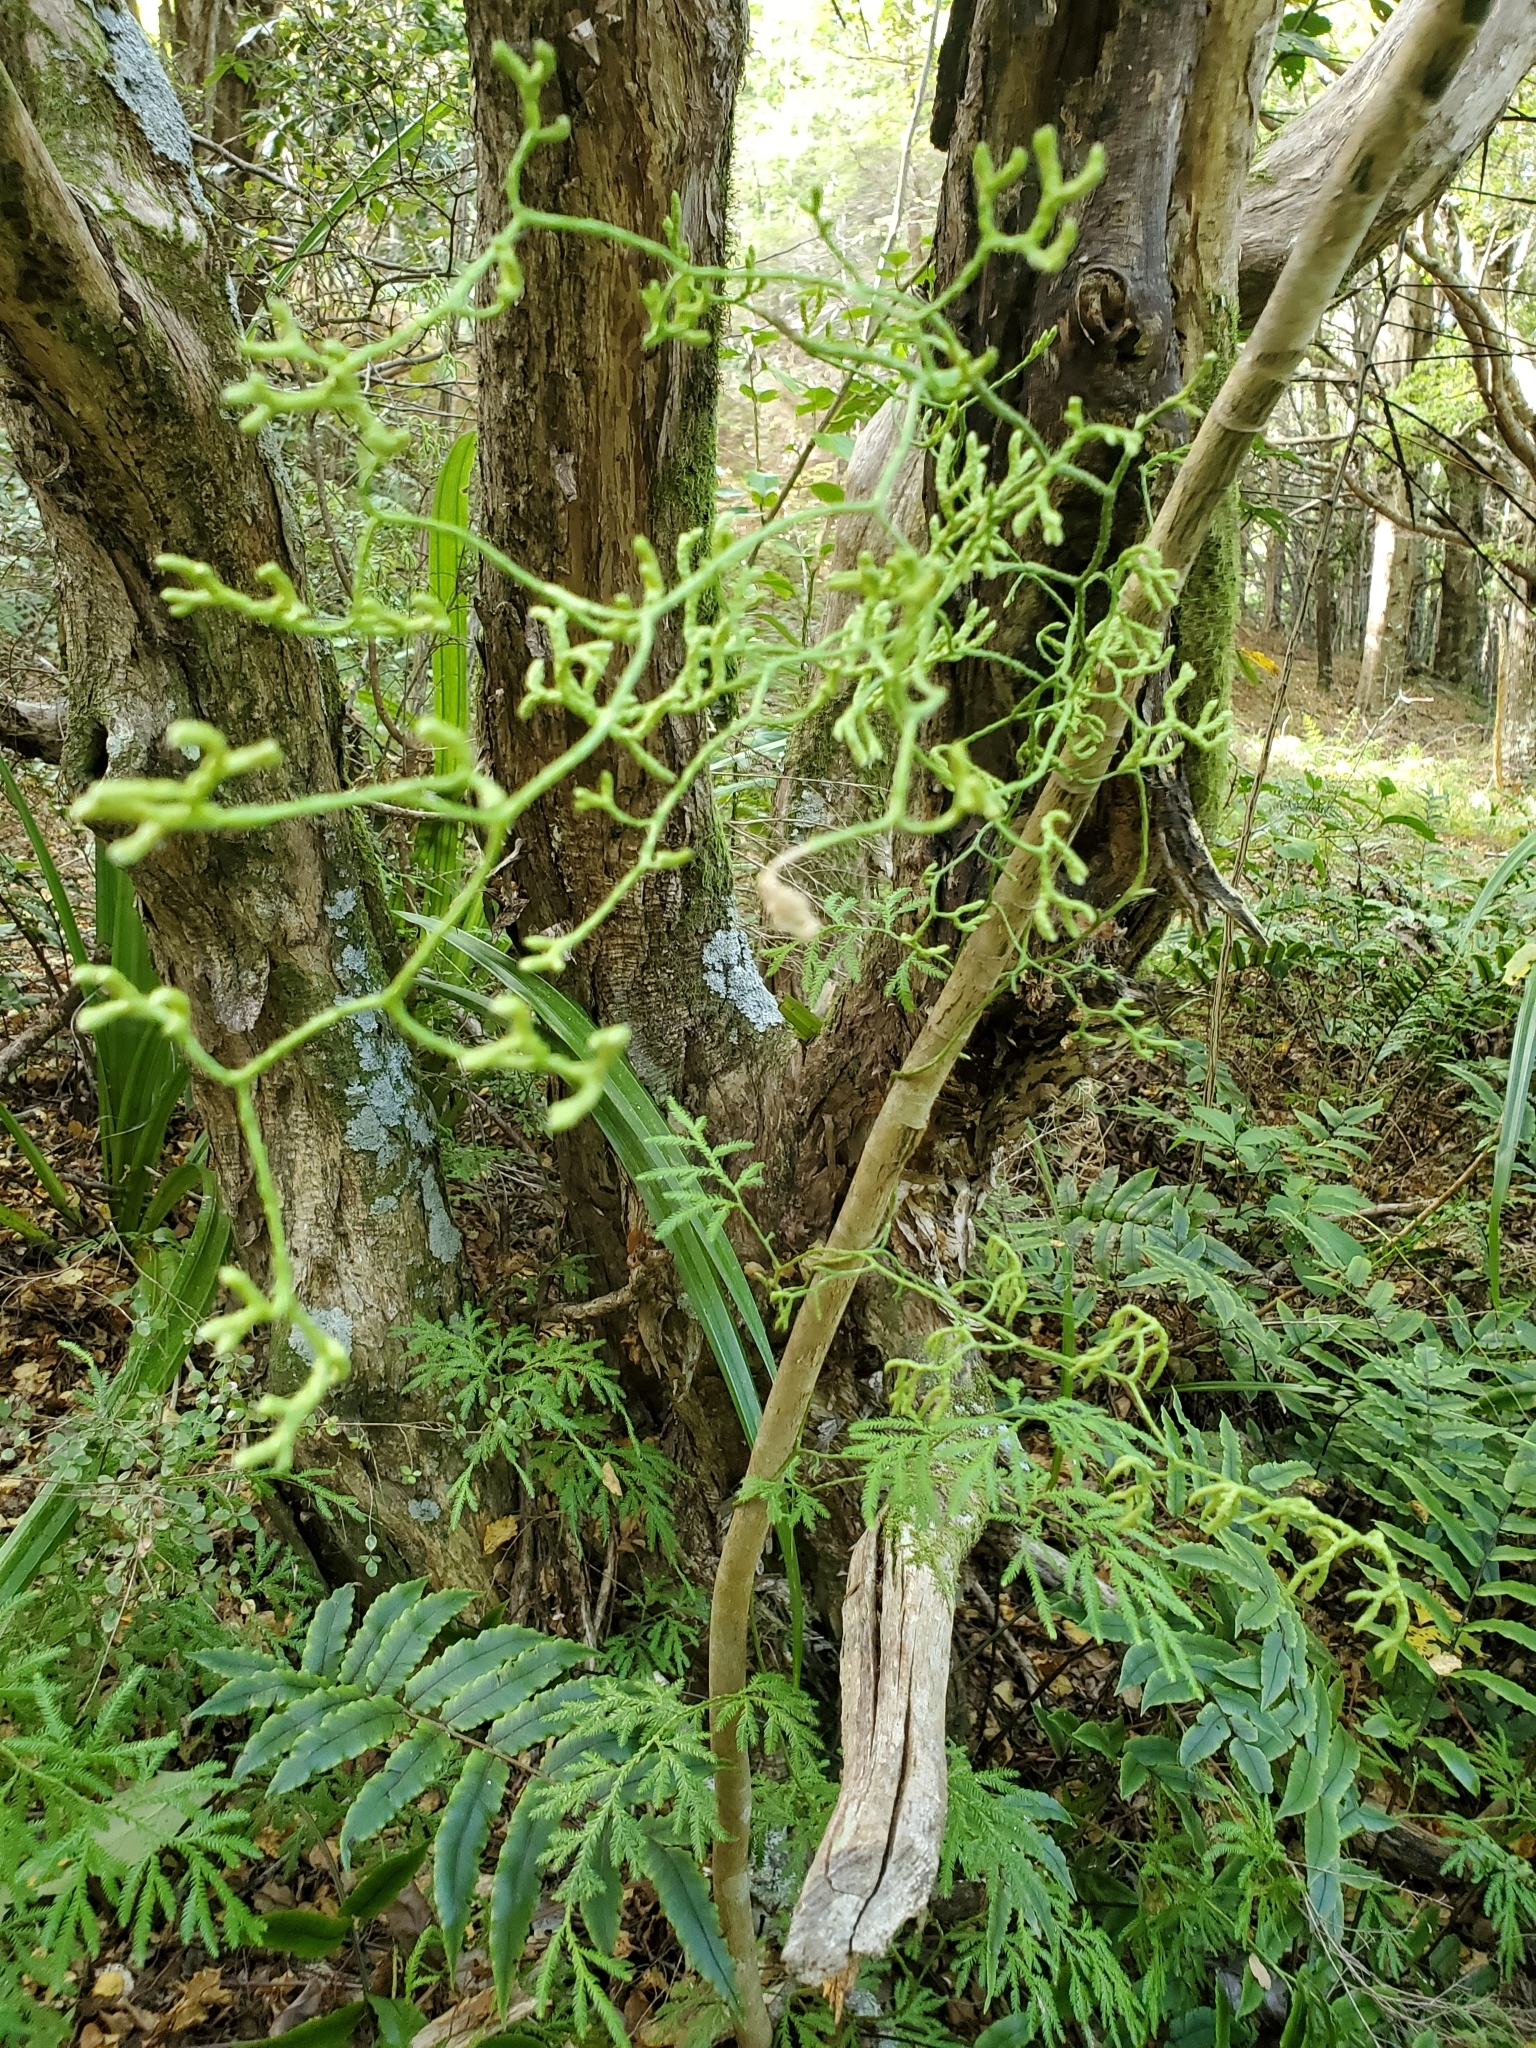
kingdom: Plantae
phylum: Tracheophyta
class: Lycopodiopsida
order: Lycopodiales
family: Lycopodiaceae
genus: Lycopodium
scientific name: Lycopodium volubile
